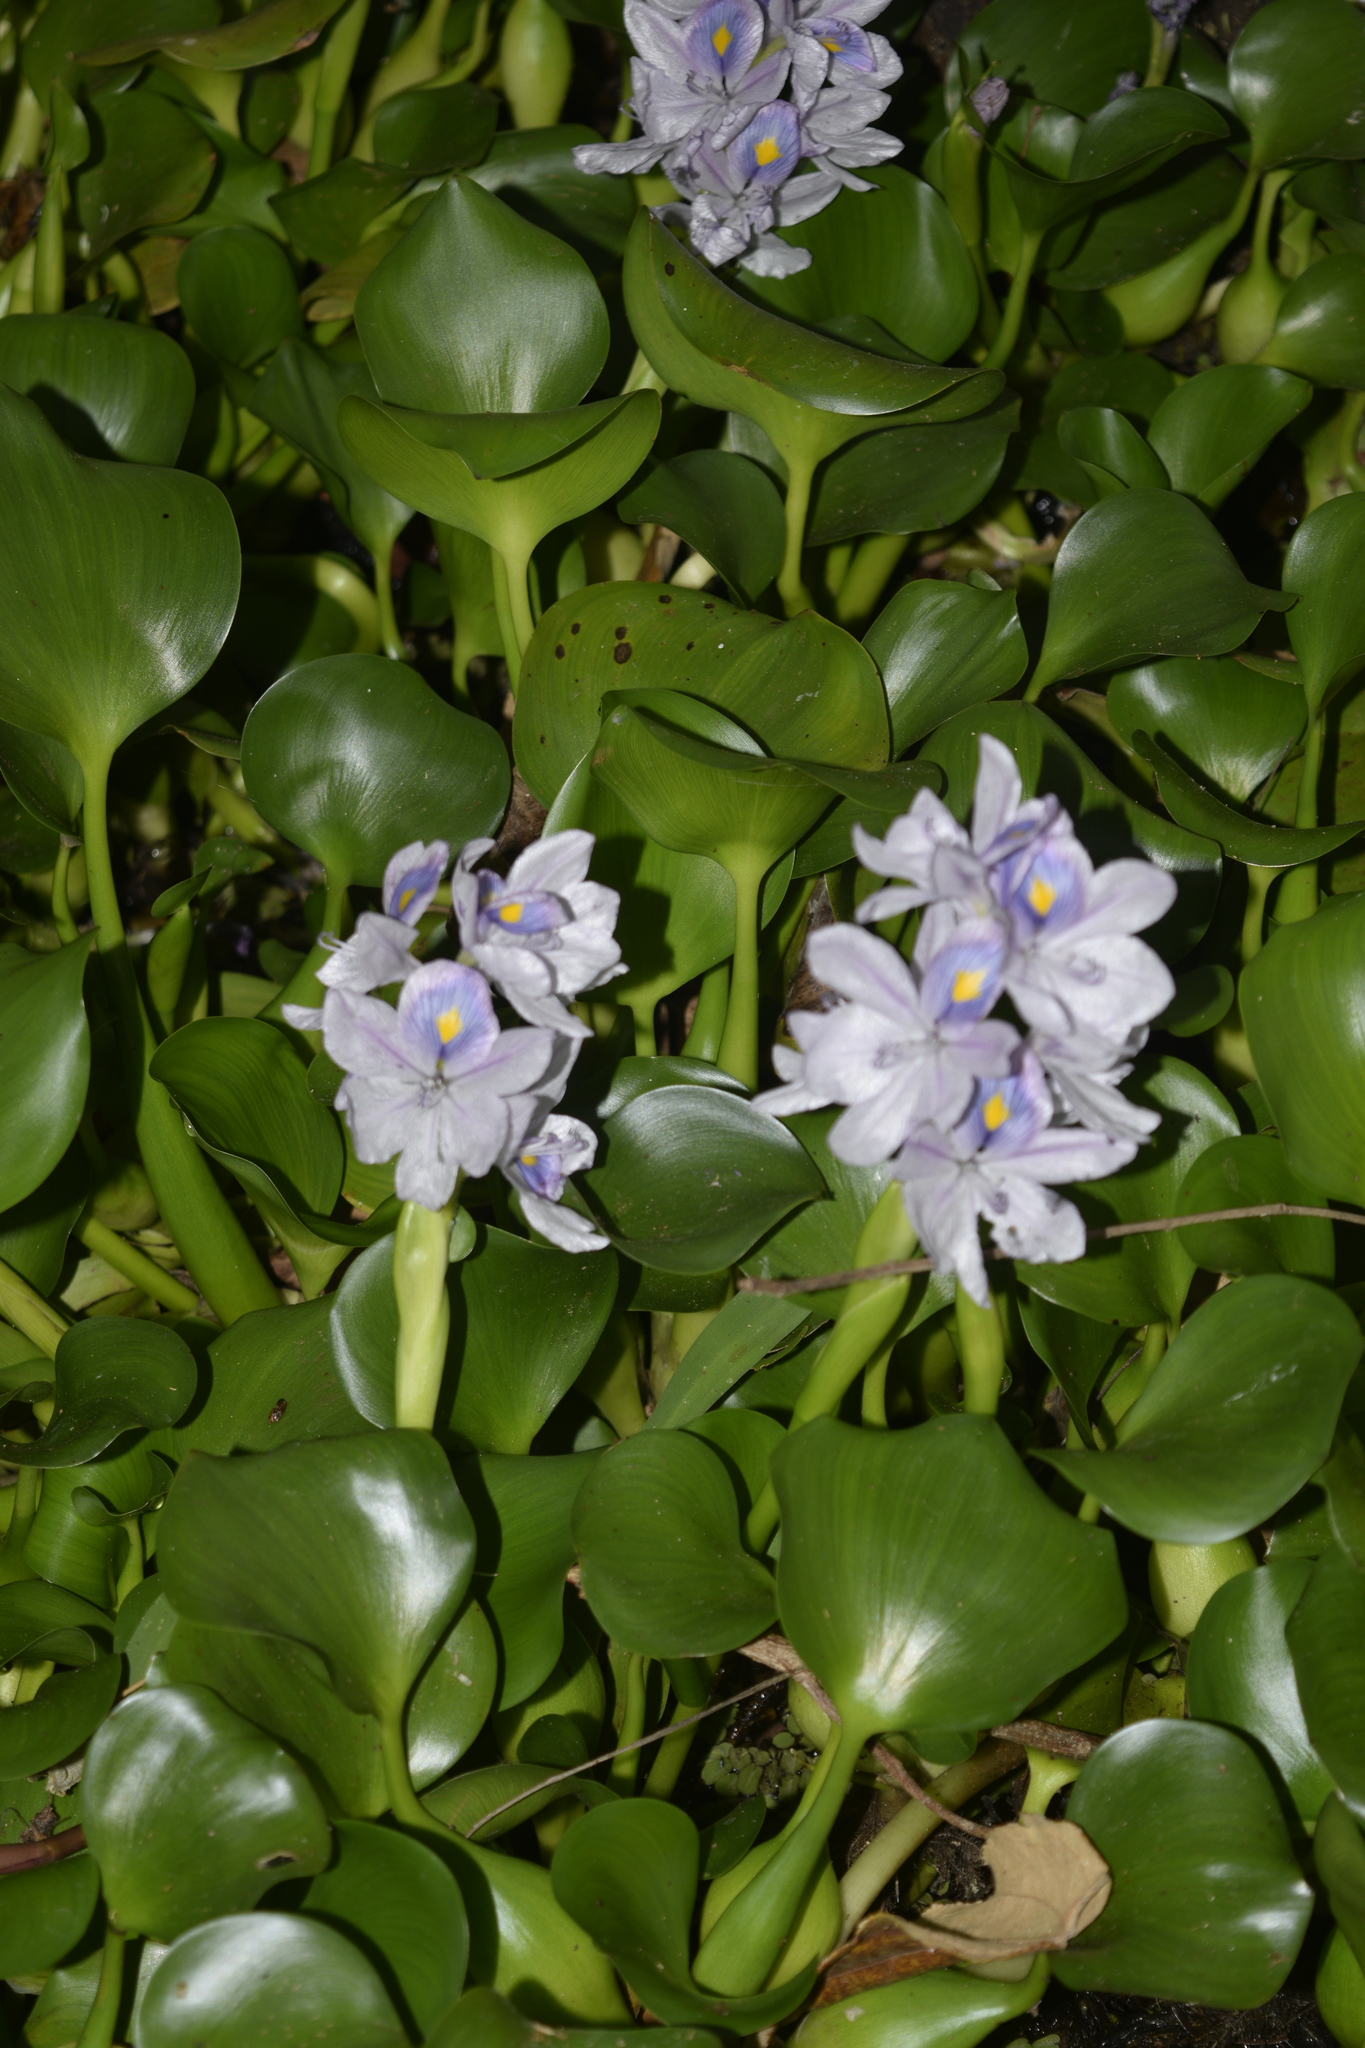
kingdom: Plantae
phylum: Tracheophyta
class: Liliopsida
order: Commelinales
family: Pontederiaceae
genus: Pontederia
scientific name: Pontederia crassipes
